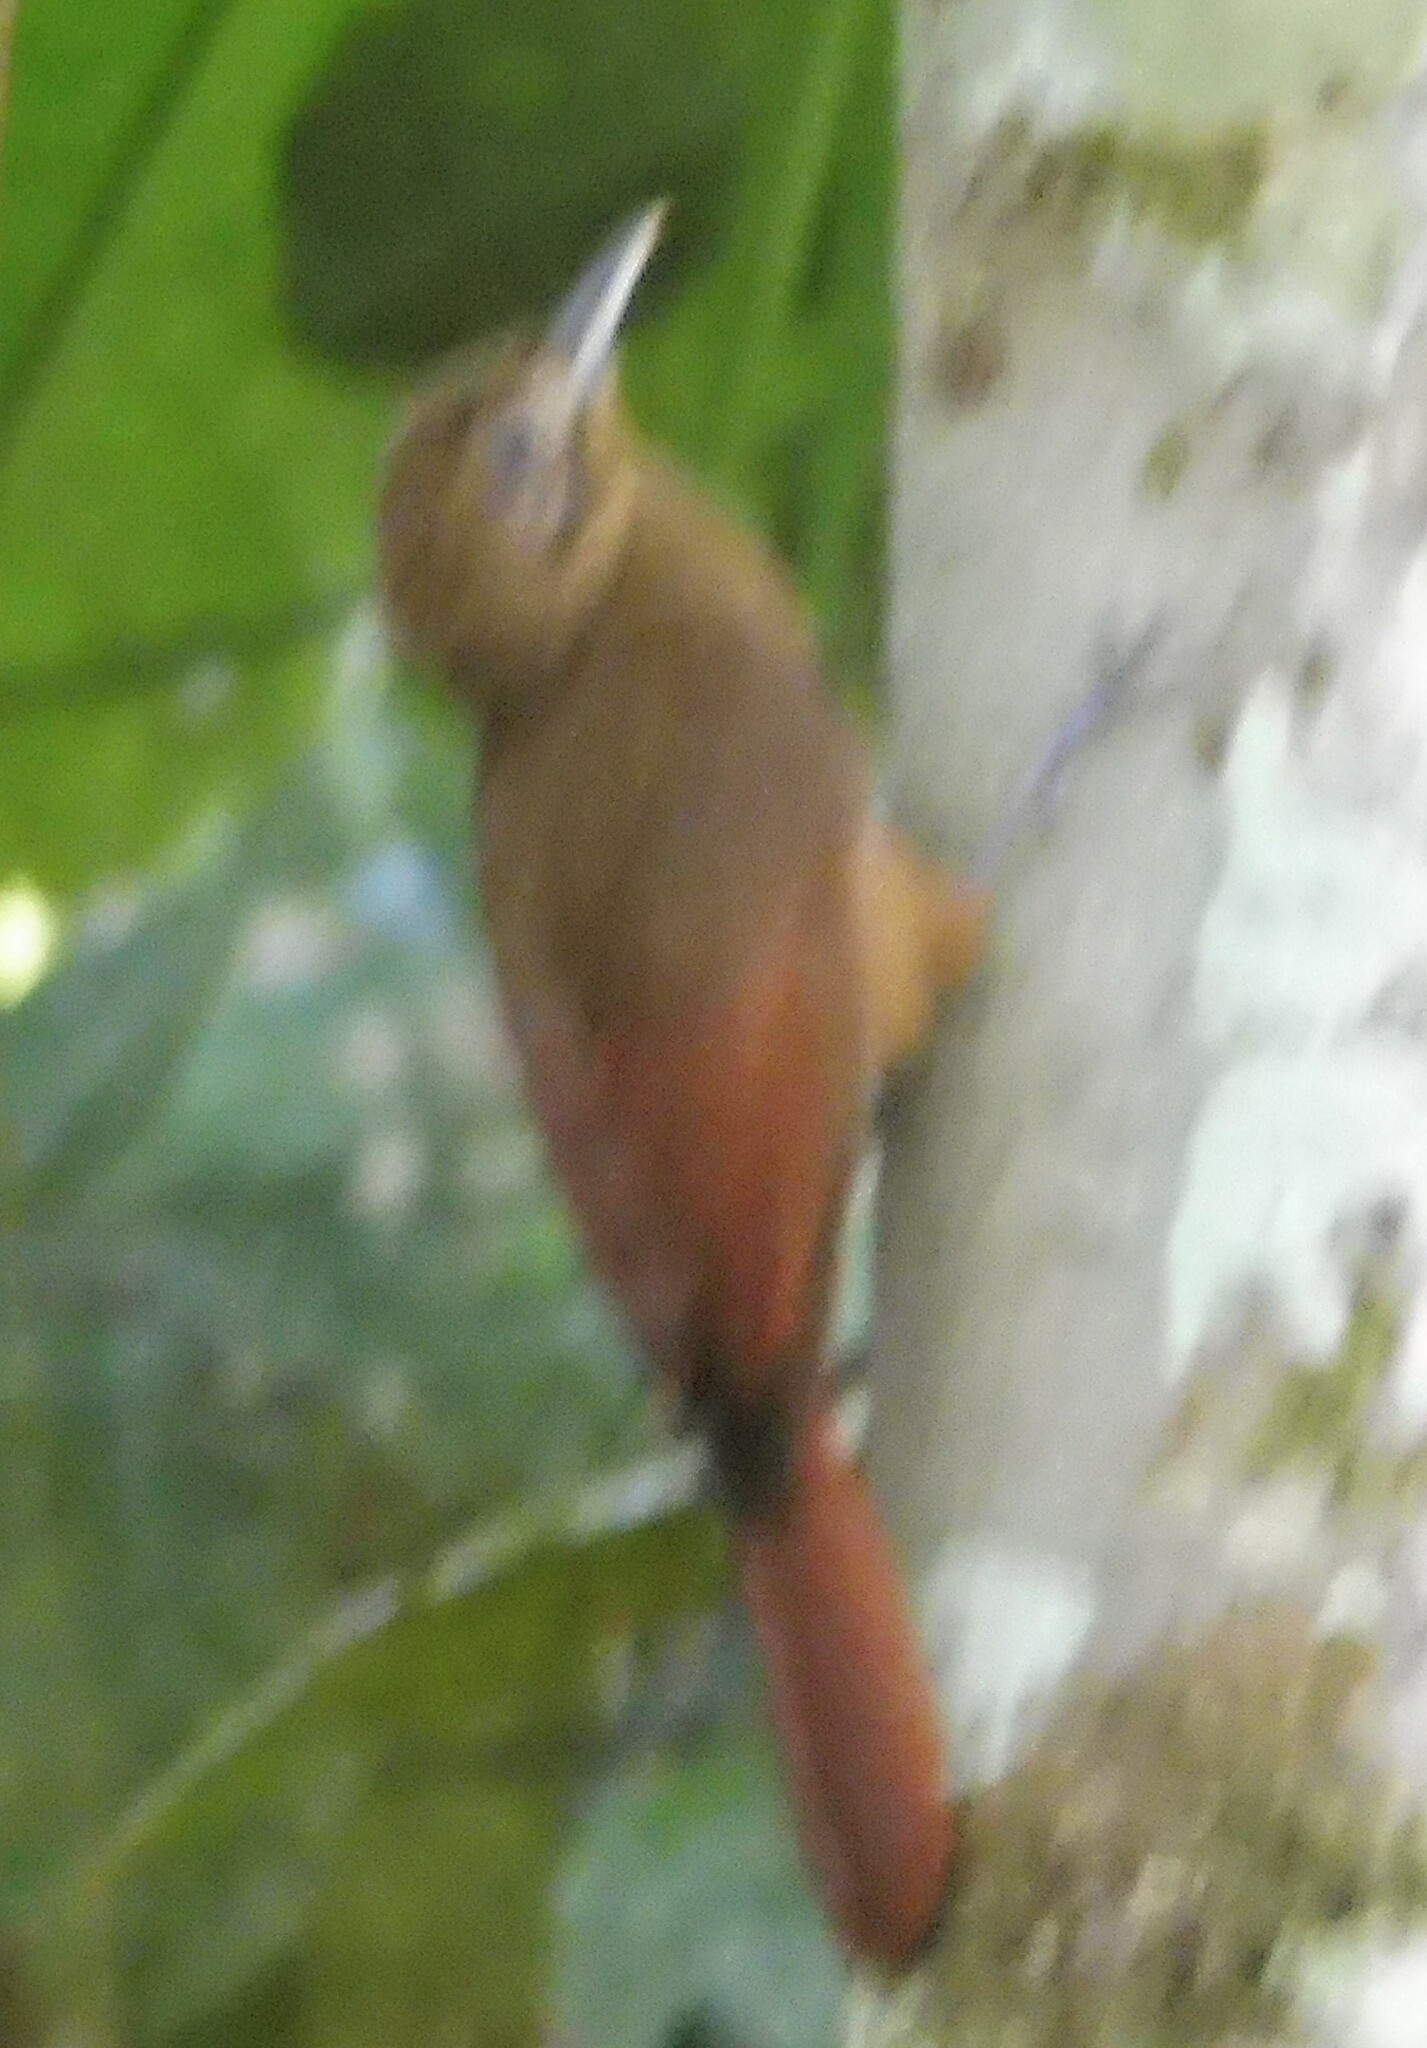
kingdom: Animalia
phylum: Chordata
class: Aves
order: Passeriformes
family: Furnariidae
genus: Dendrocincla
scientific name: Dendrocincla fuliginosa
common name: Plain-brown woodcreeper
